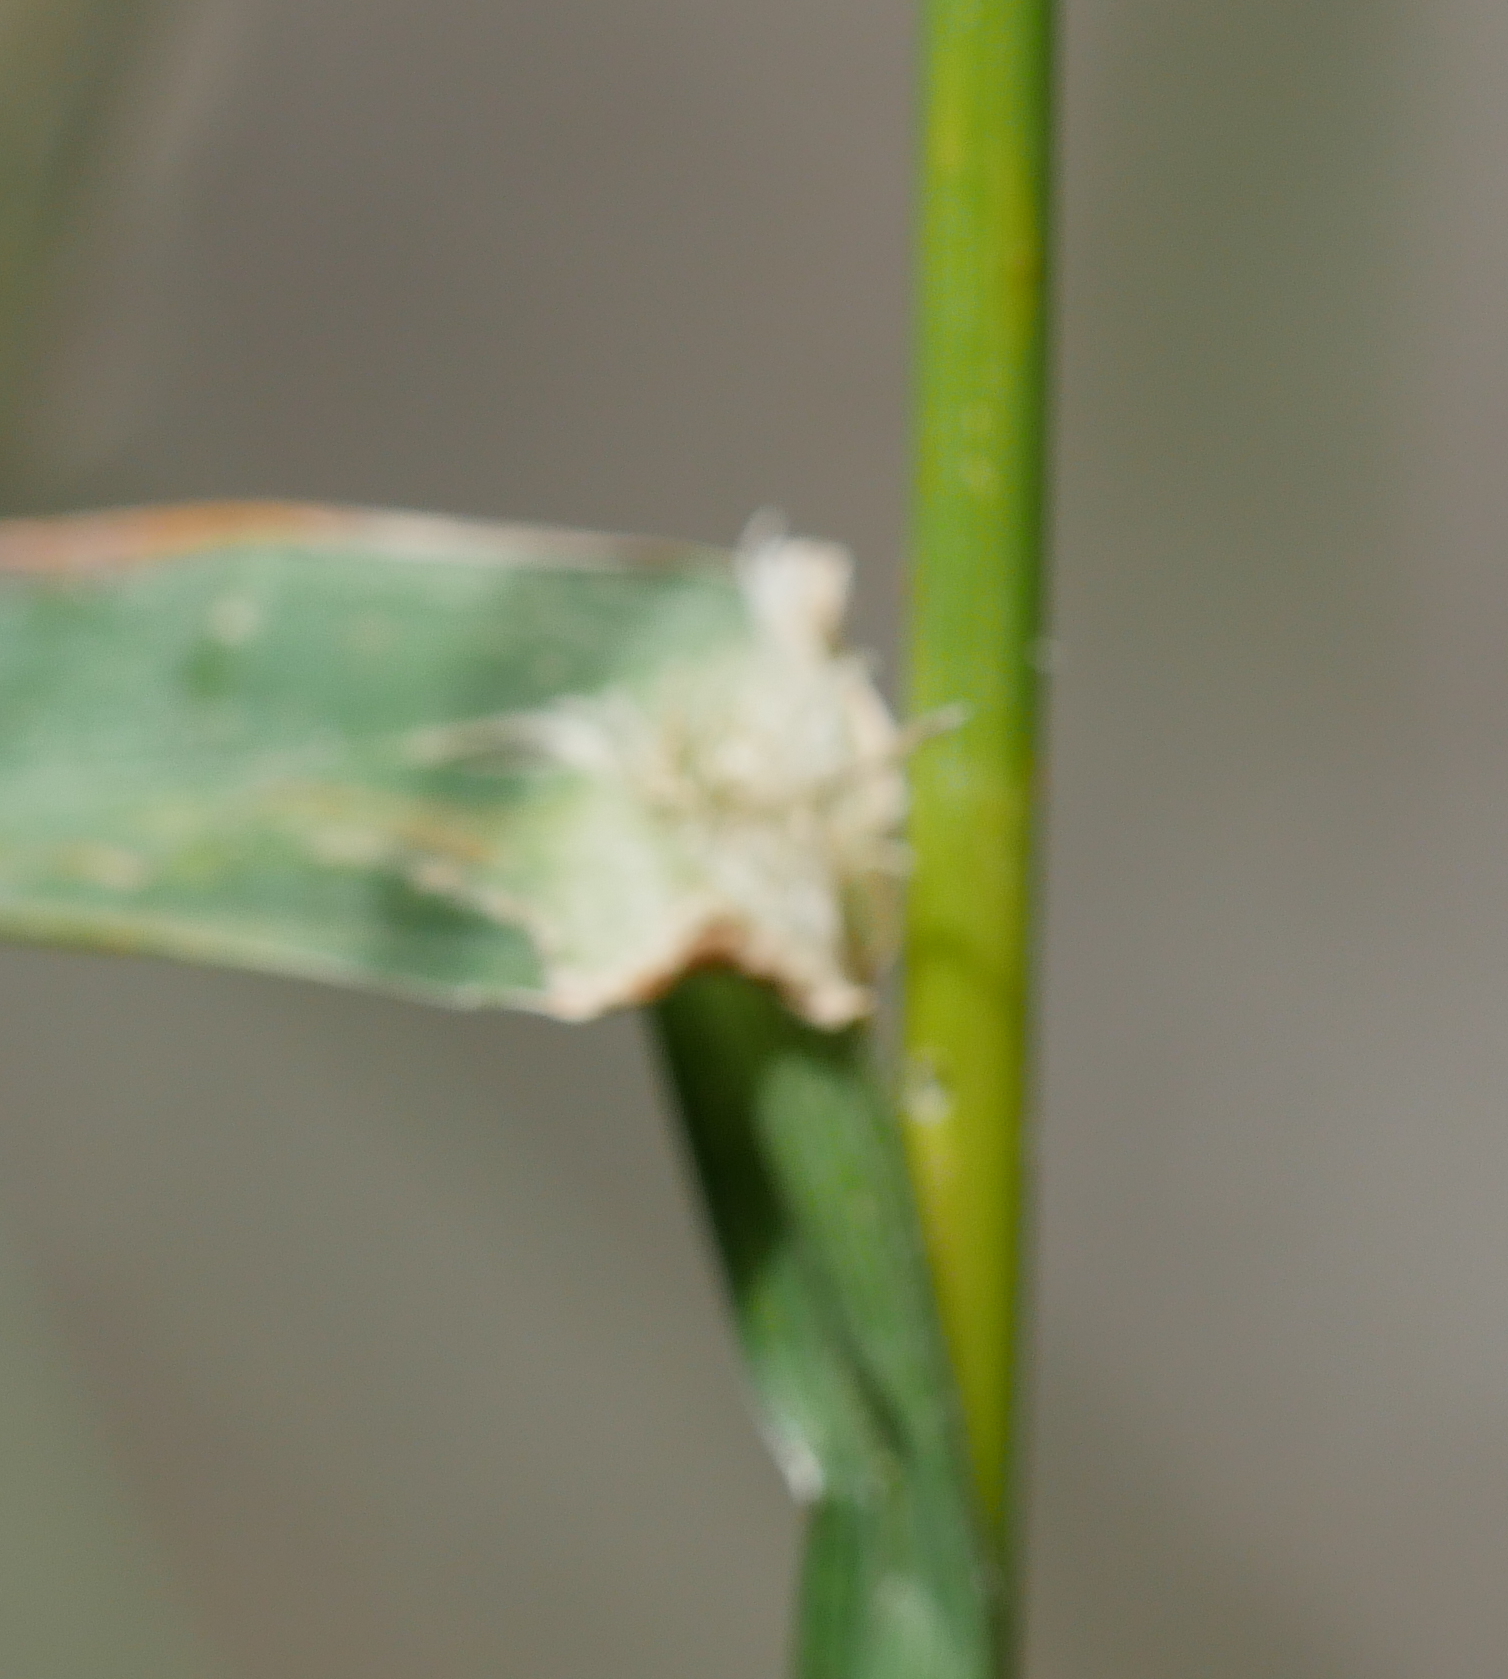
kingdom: Plantae
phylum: Tracheophyta
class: Liliopsida
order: Poales
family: Poaceae
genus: Dactylis
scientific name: Dactylis glomerata
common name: Orchardgrass
